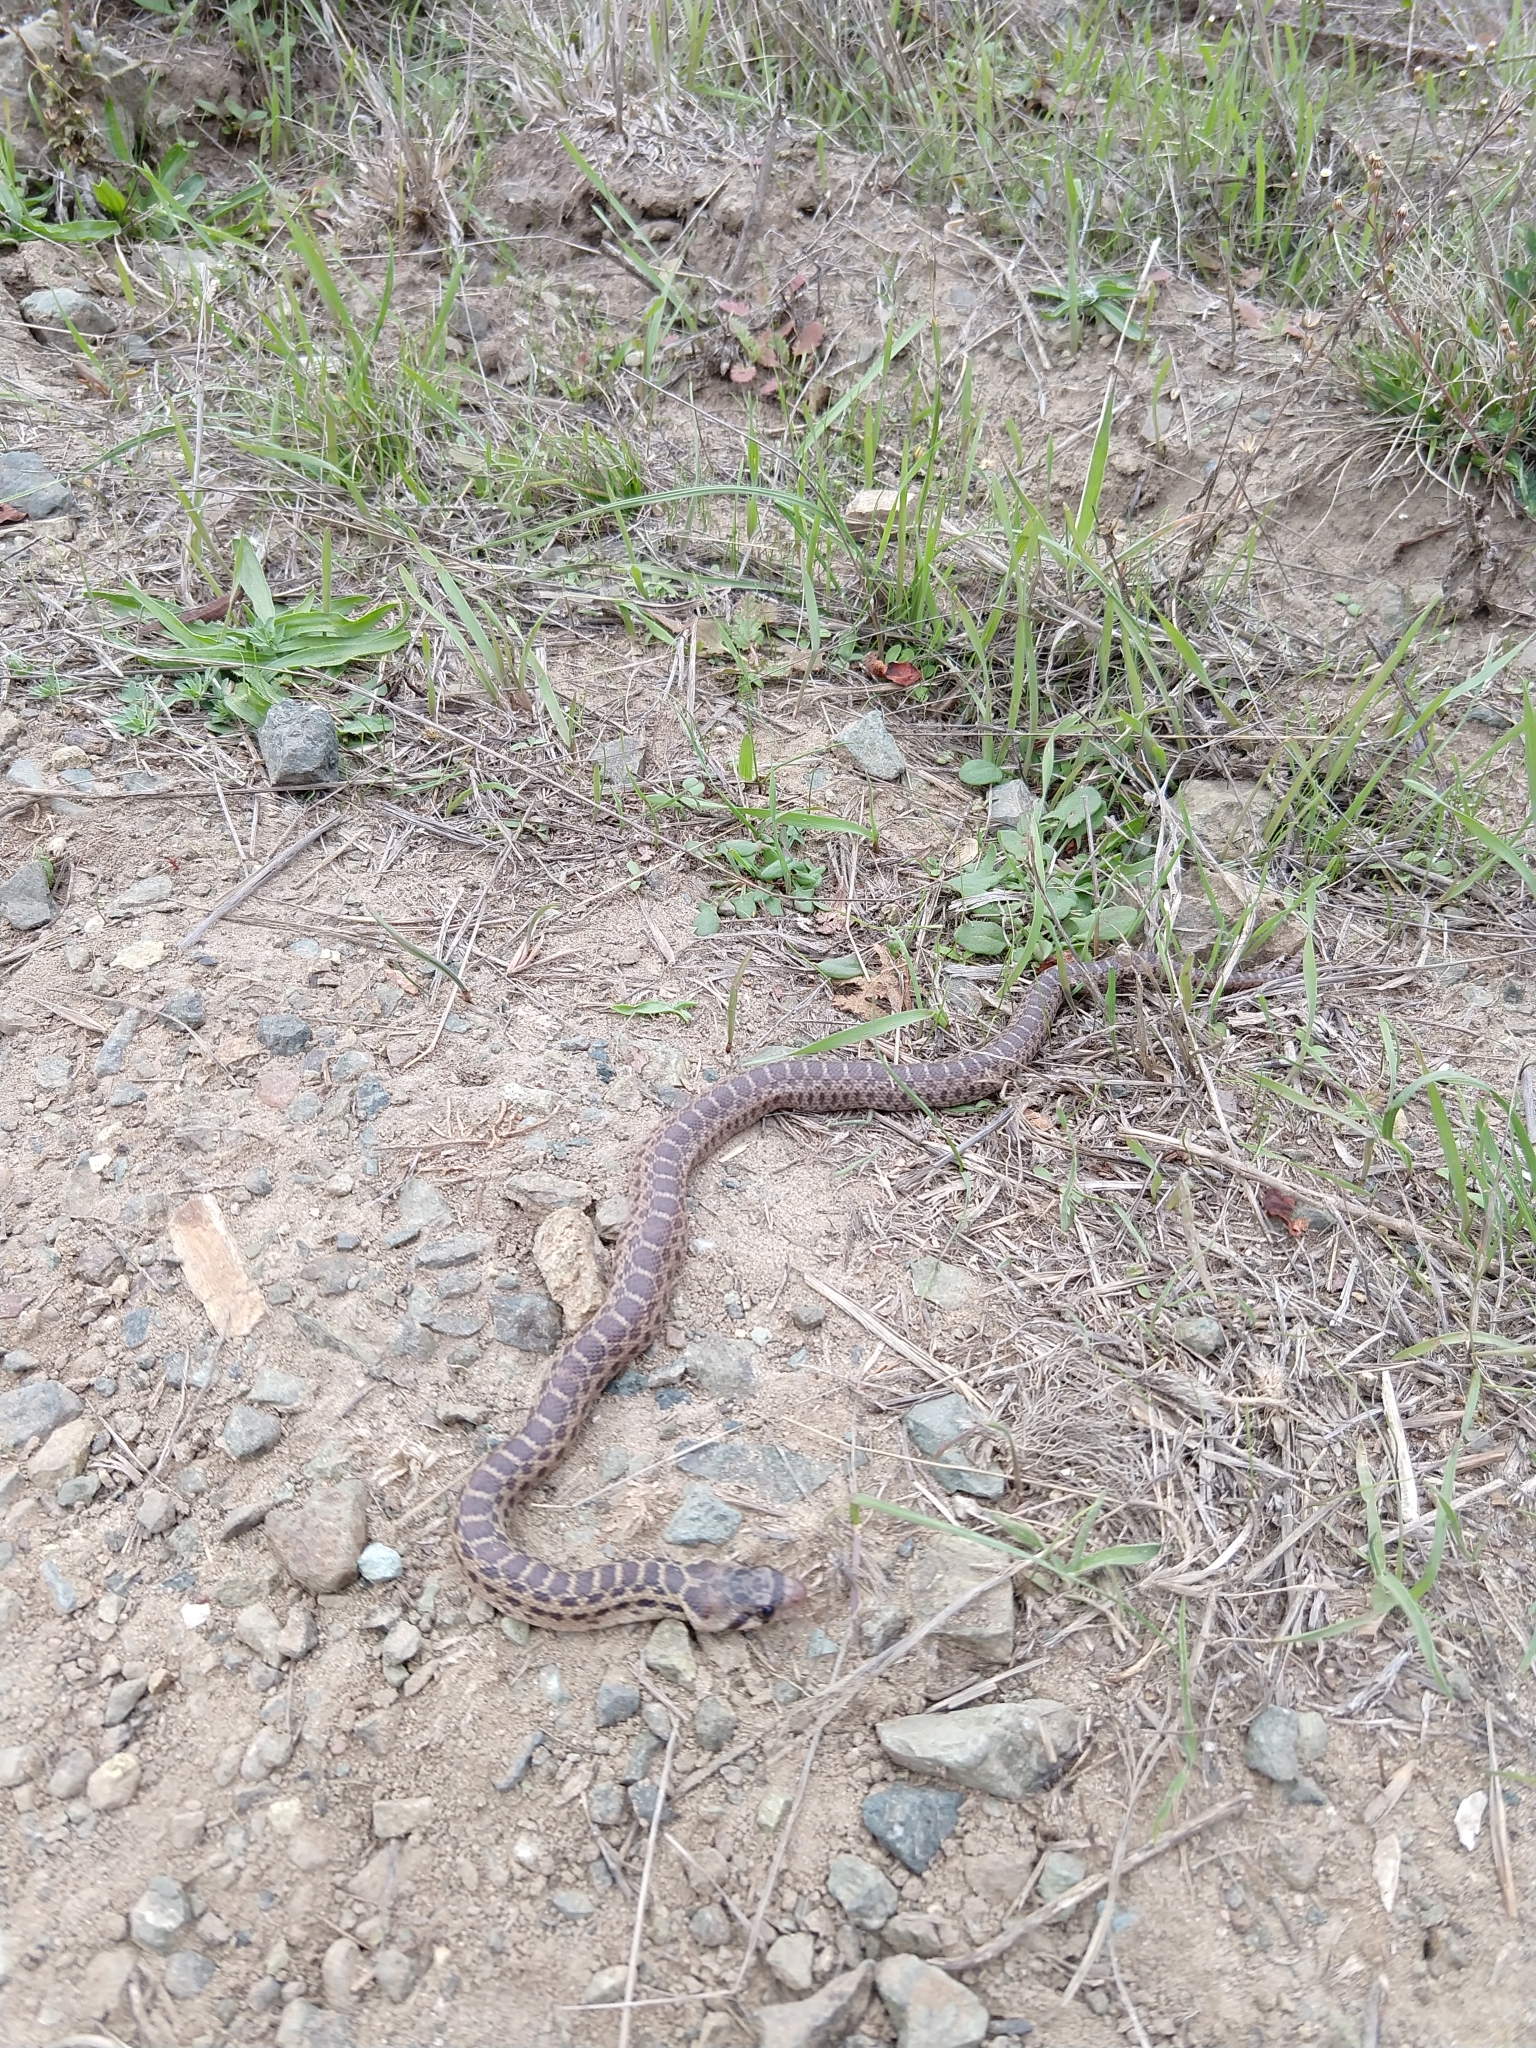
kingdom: Animalia
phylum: Chordata
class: Squamata
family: Colubridae
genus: Pituophis
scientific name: Pituophis catenifer
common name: Gopher snake
